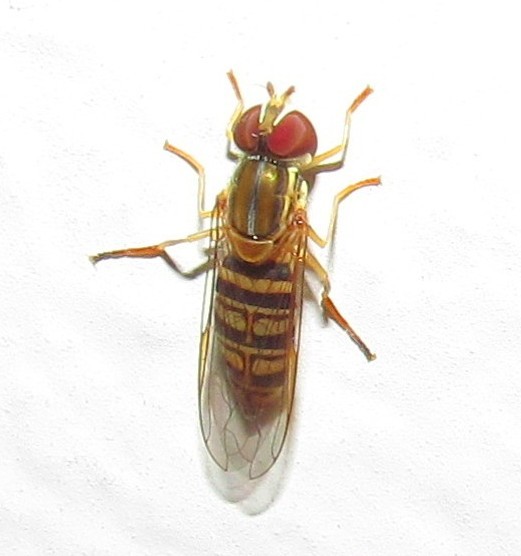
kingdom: Animalia
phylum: Arthropoda
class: Insecta
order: Diptera
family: Syrphidae
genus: Toxomerus
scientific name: Toxomerus politus
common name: Maize calligrapher
